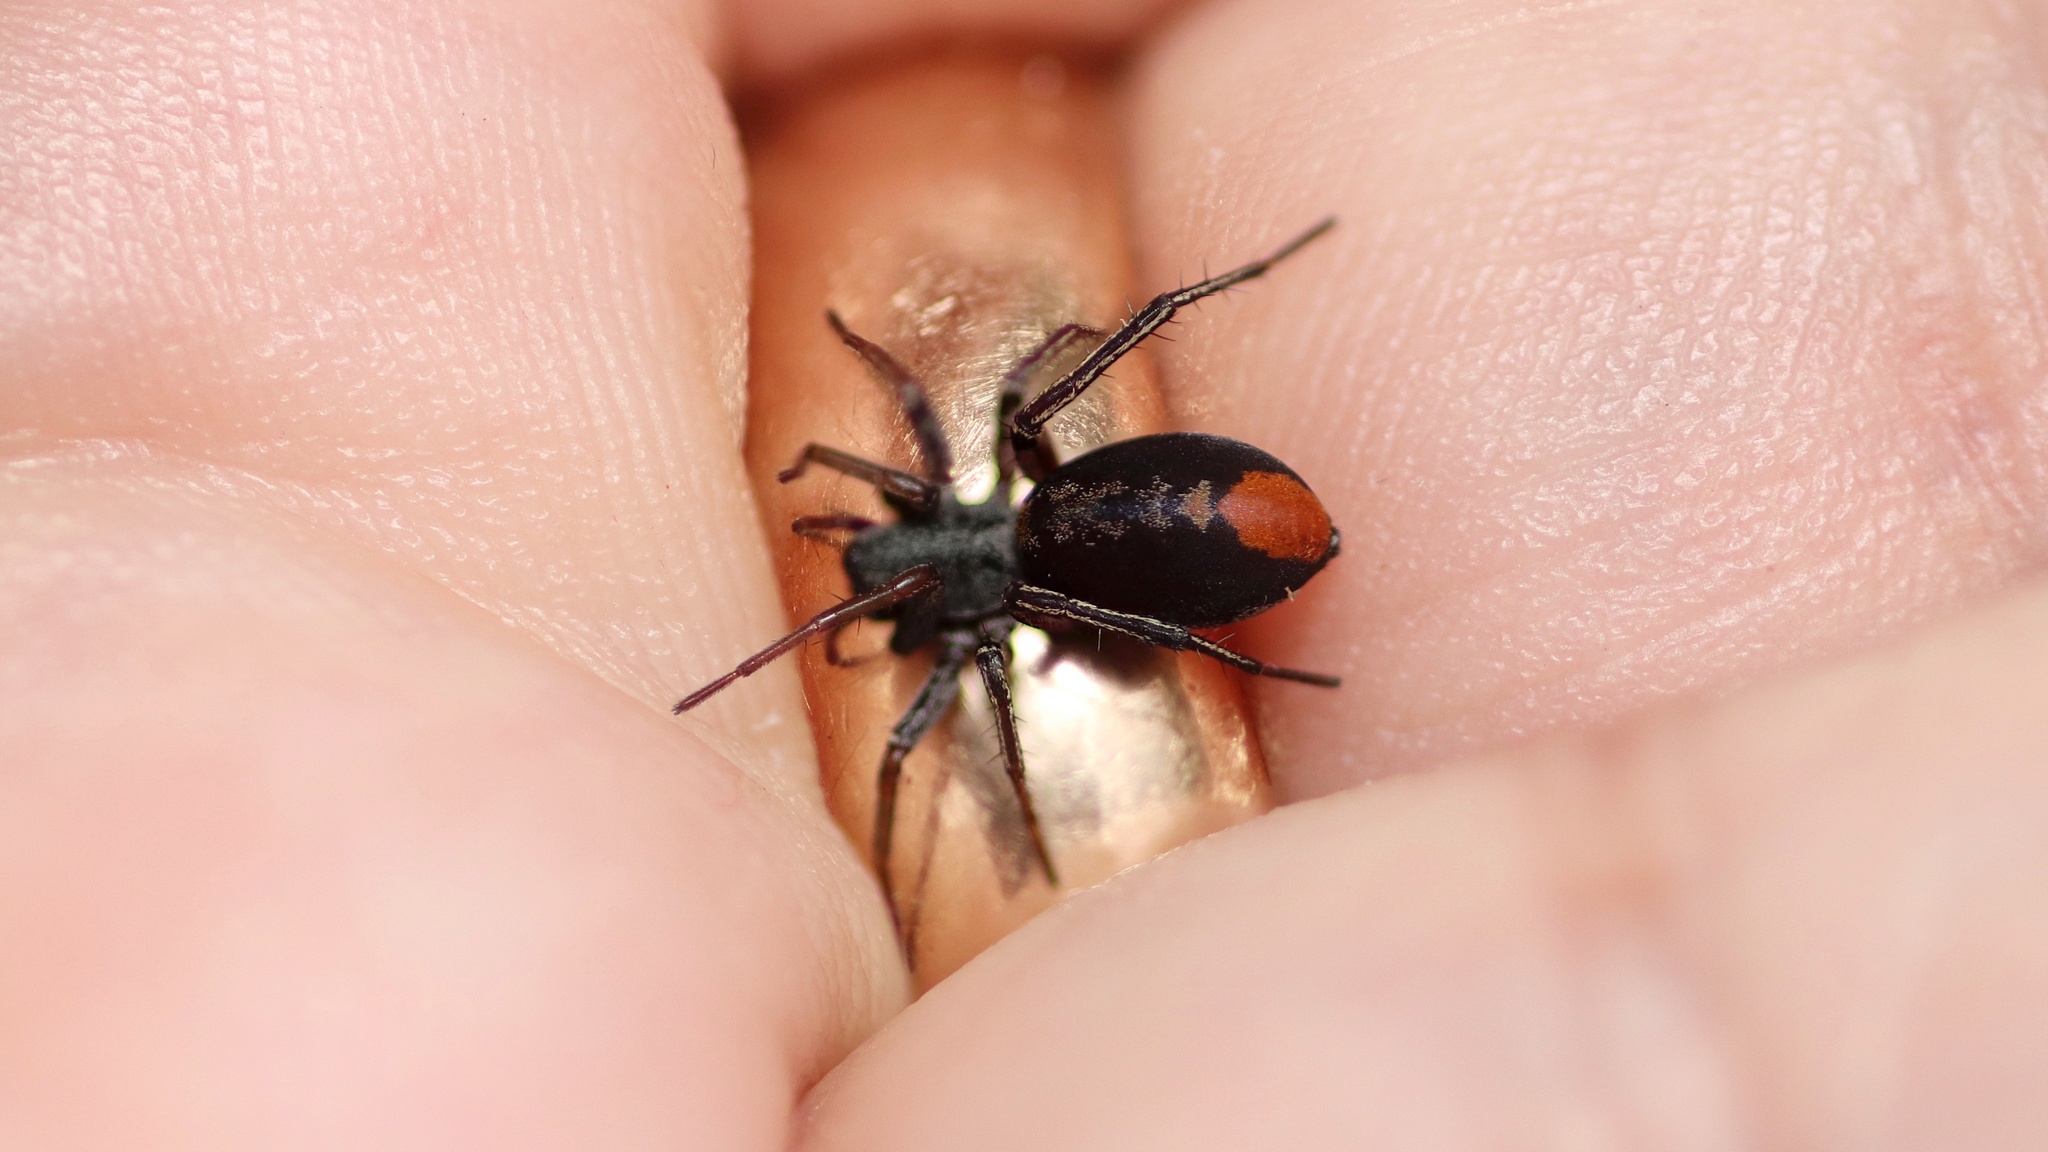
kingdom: Animalia
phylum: Arthropoda
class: Arachnida
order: Araneae
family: Corinnidae
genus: Castianeira
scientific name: Castianeira descripta
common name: Red-spotted ant-mimic sac spider
